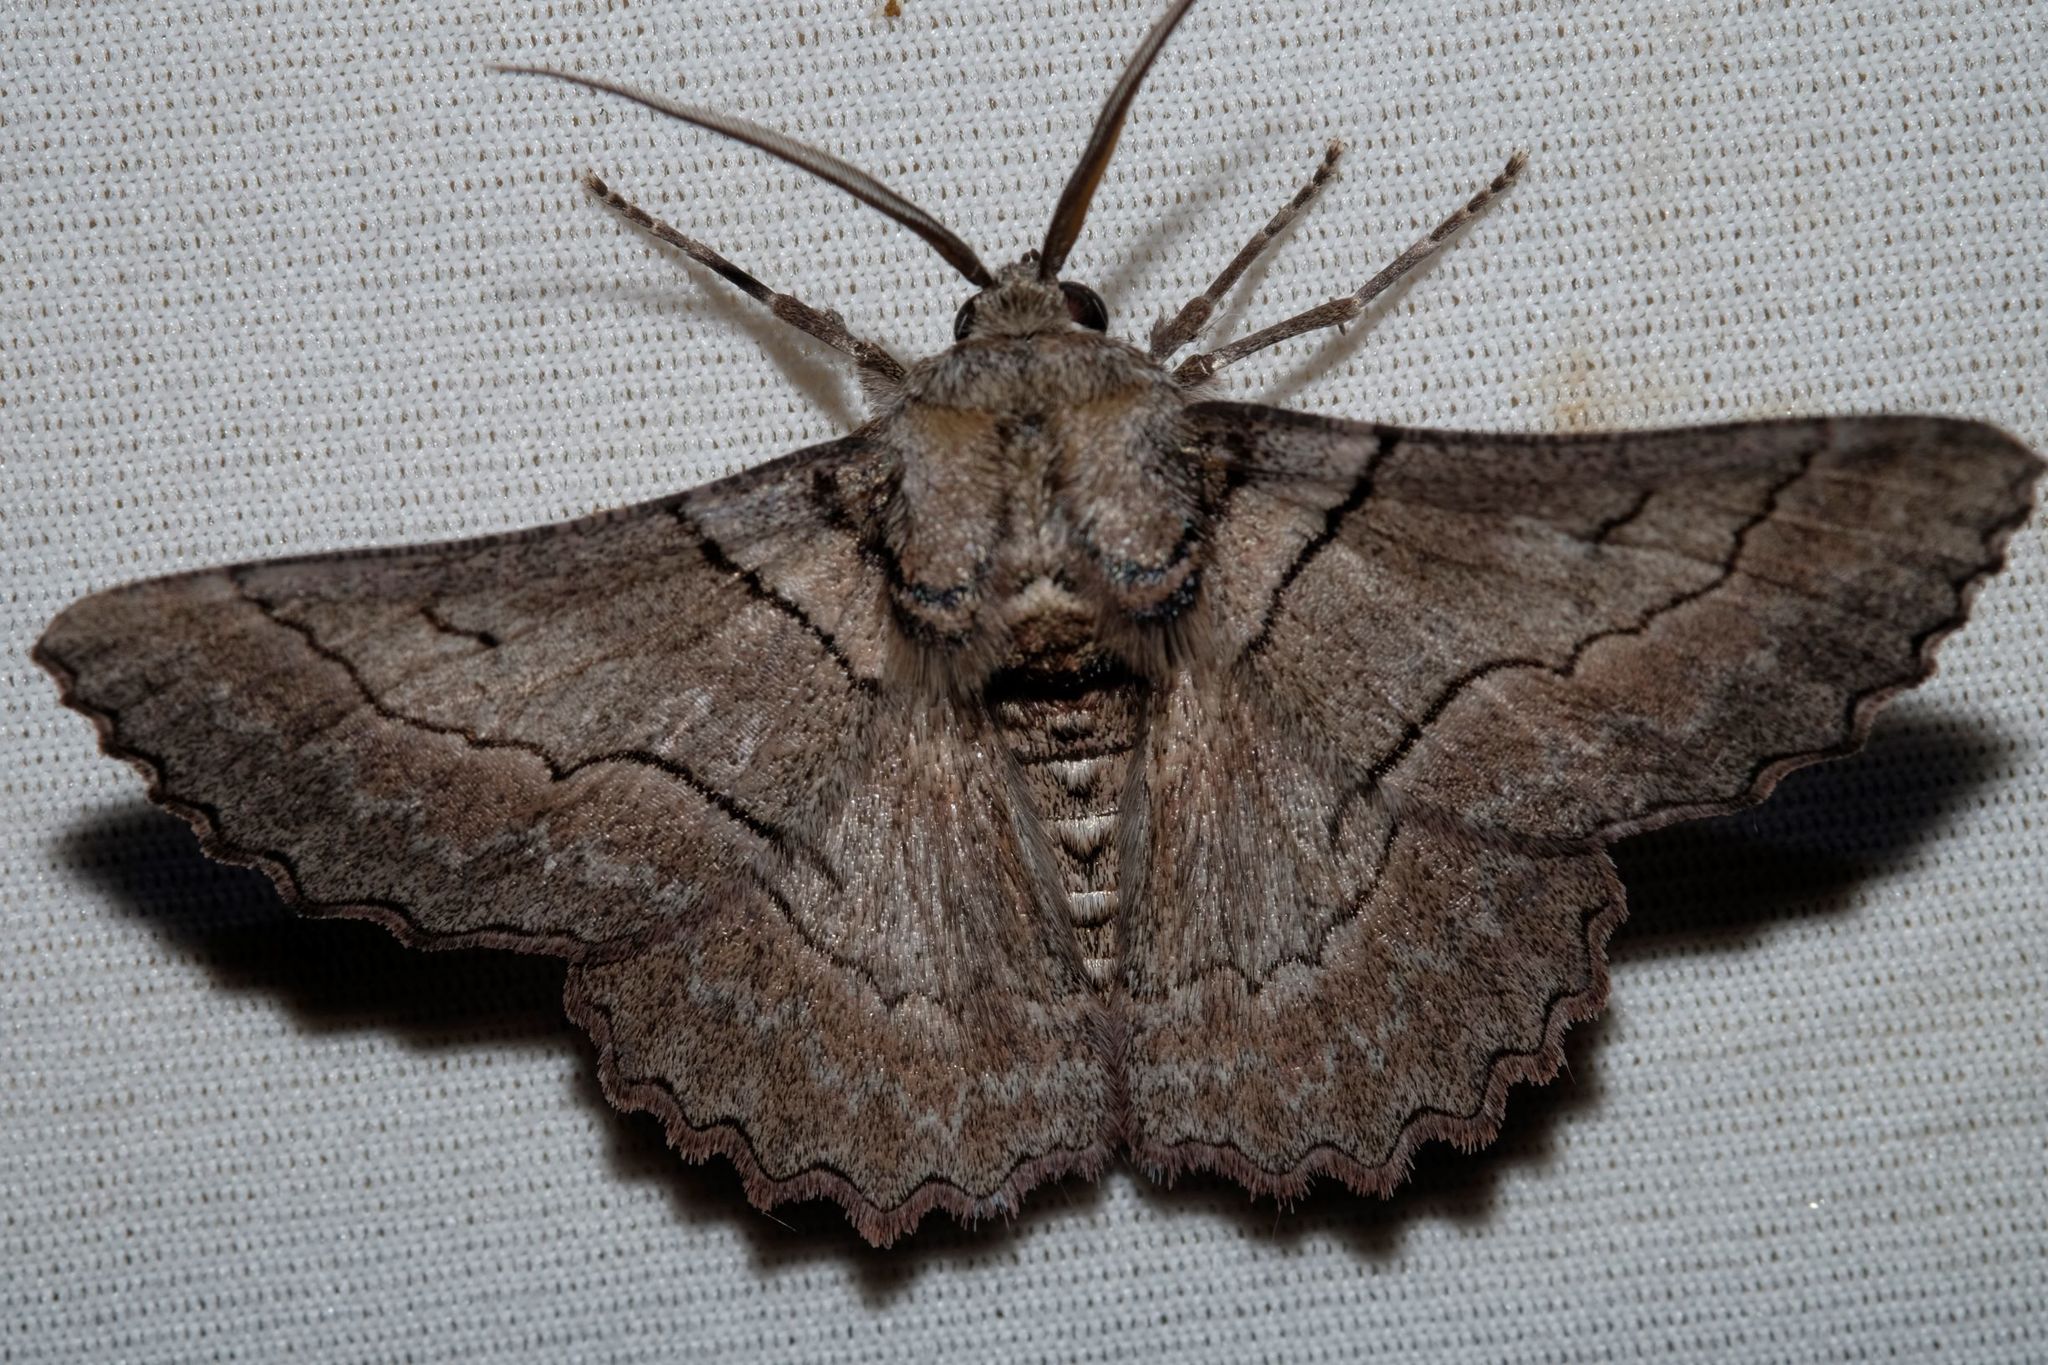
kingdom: Animalia
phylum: Arthropoda
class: Insecta
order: Lepidoptera
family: Geometridae
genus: Hypobapta
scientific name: Hypobapta tachyhalotaria
